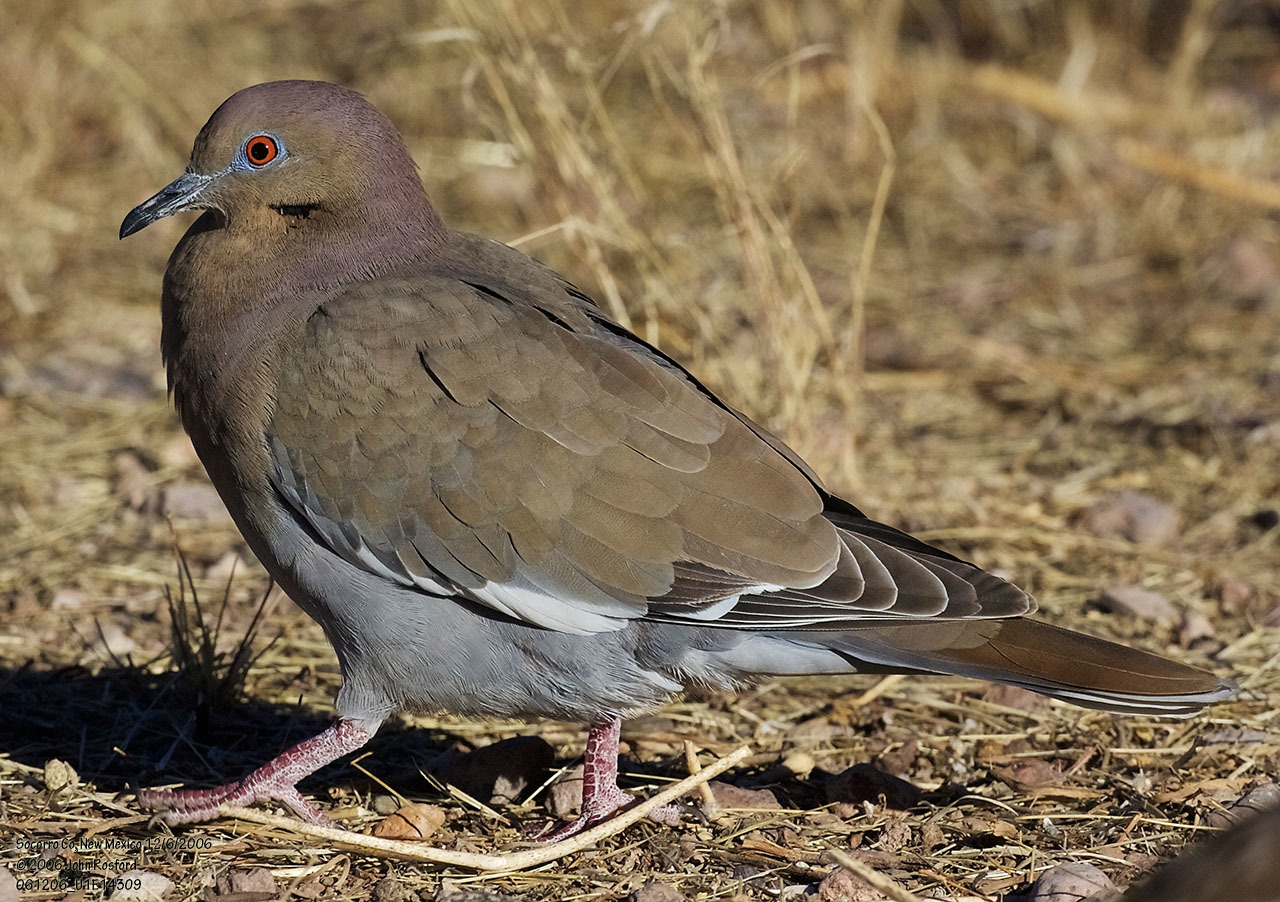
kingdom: Animalia
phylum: Chordata
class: Aves
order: Columbiformes
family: Columbidae
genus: Zenaida
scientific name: Zenaida asiatica
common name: White-winged dove
